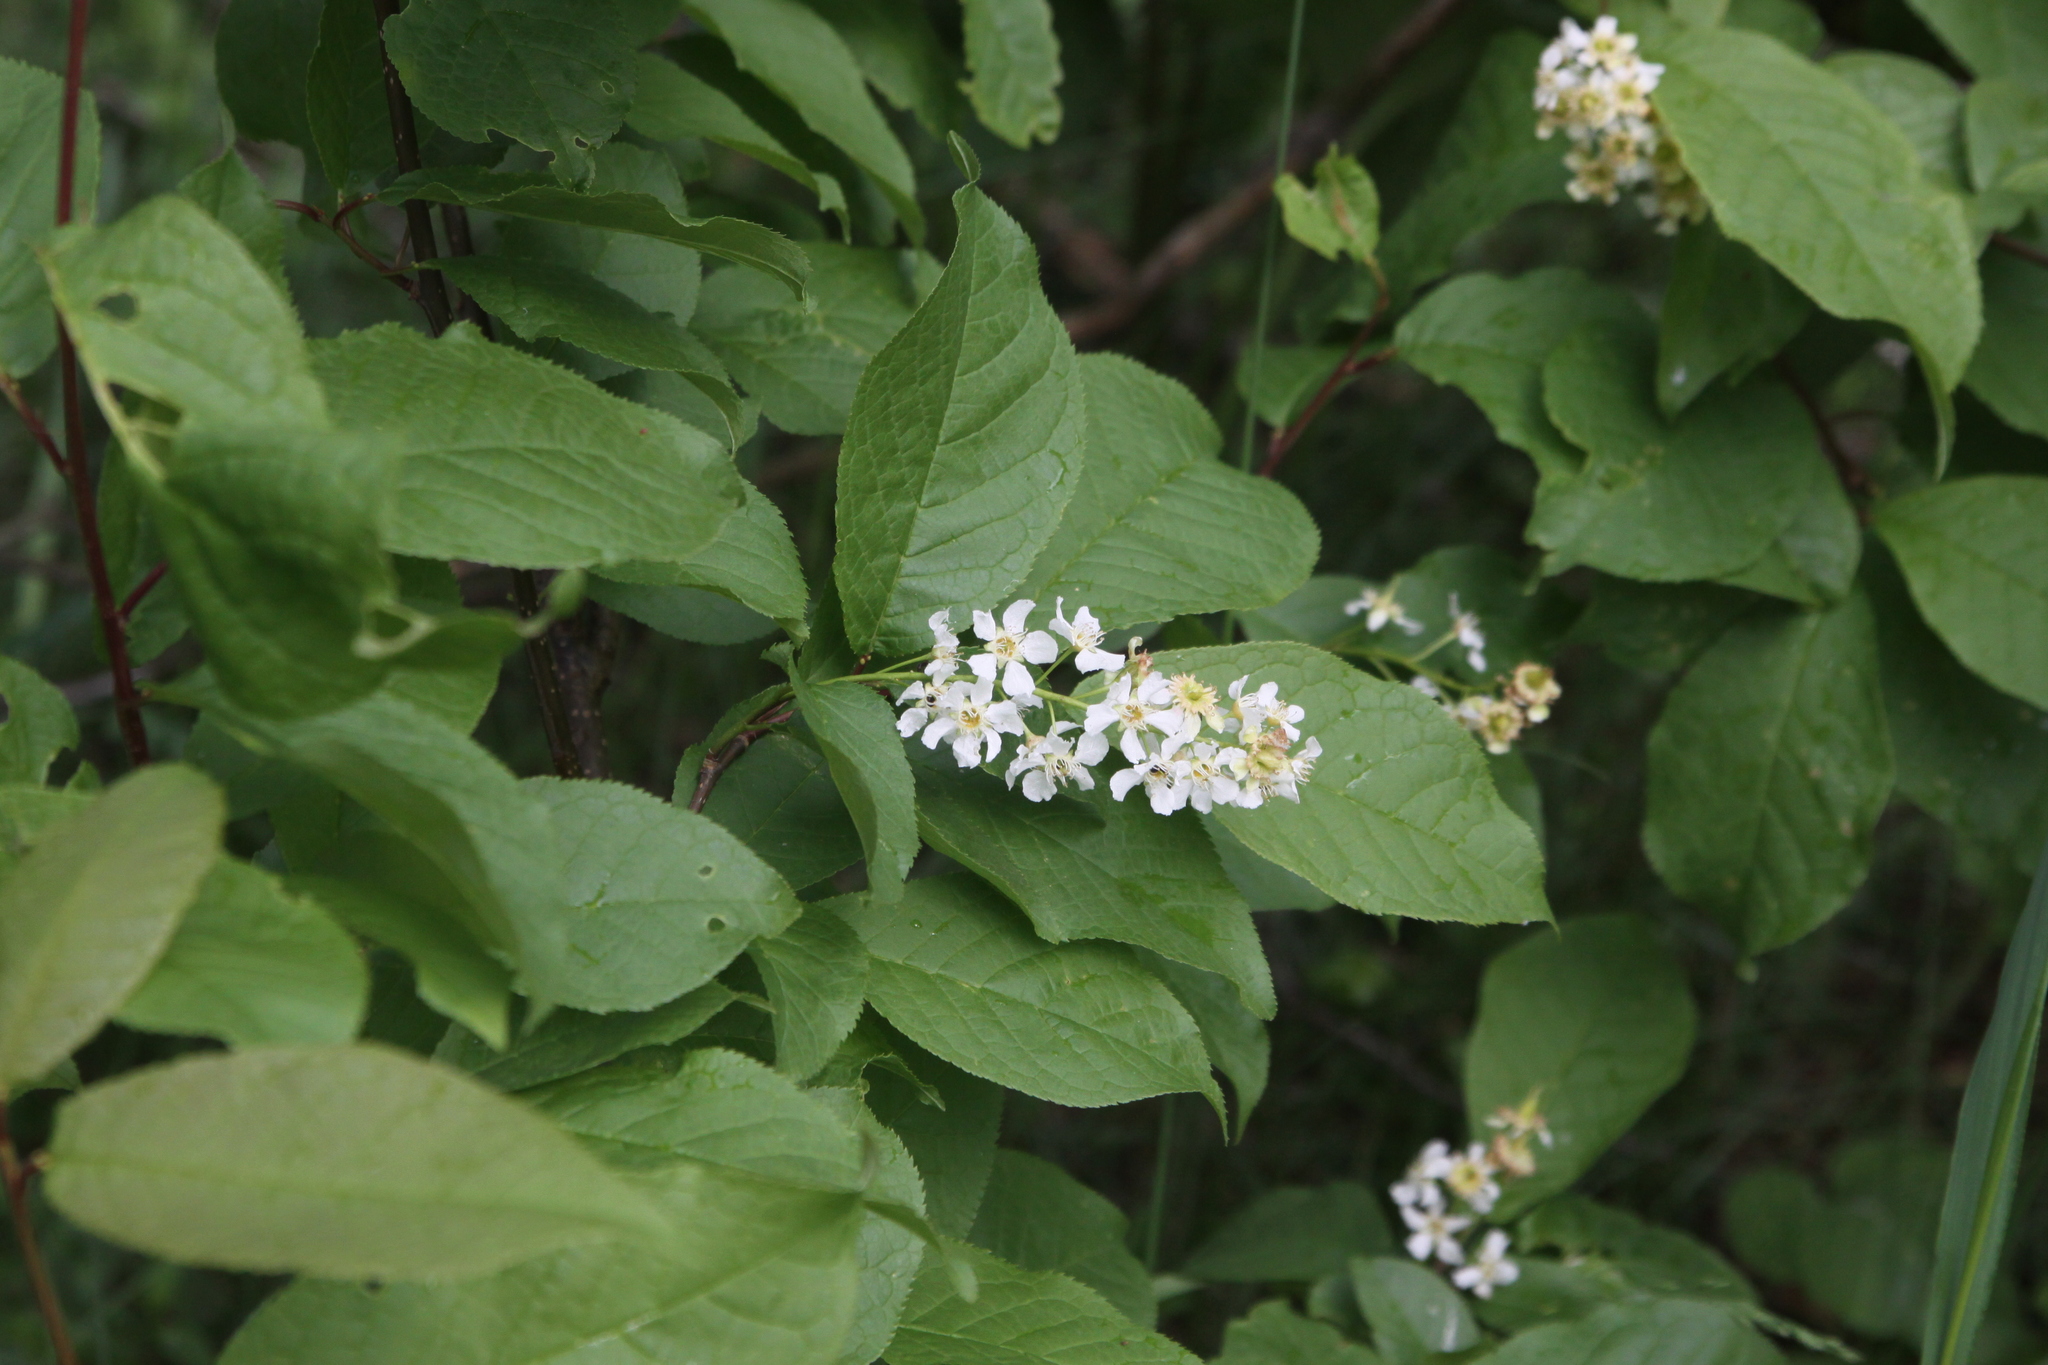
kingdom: Plantae
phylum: Tracheophyta
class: Magnoliopsida
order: Rosales
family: Rosaceae
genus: Prunus
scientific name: Prunus padus
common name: Bird cherry
